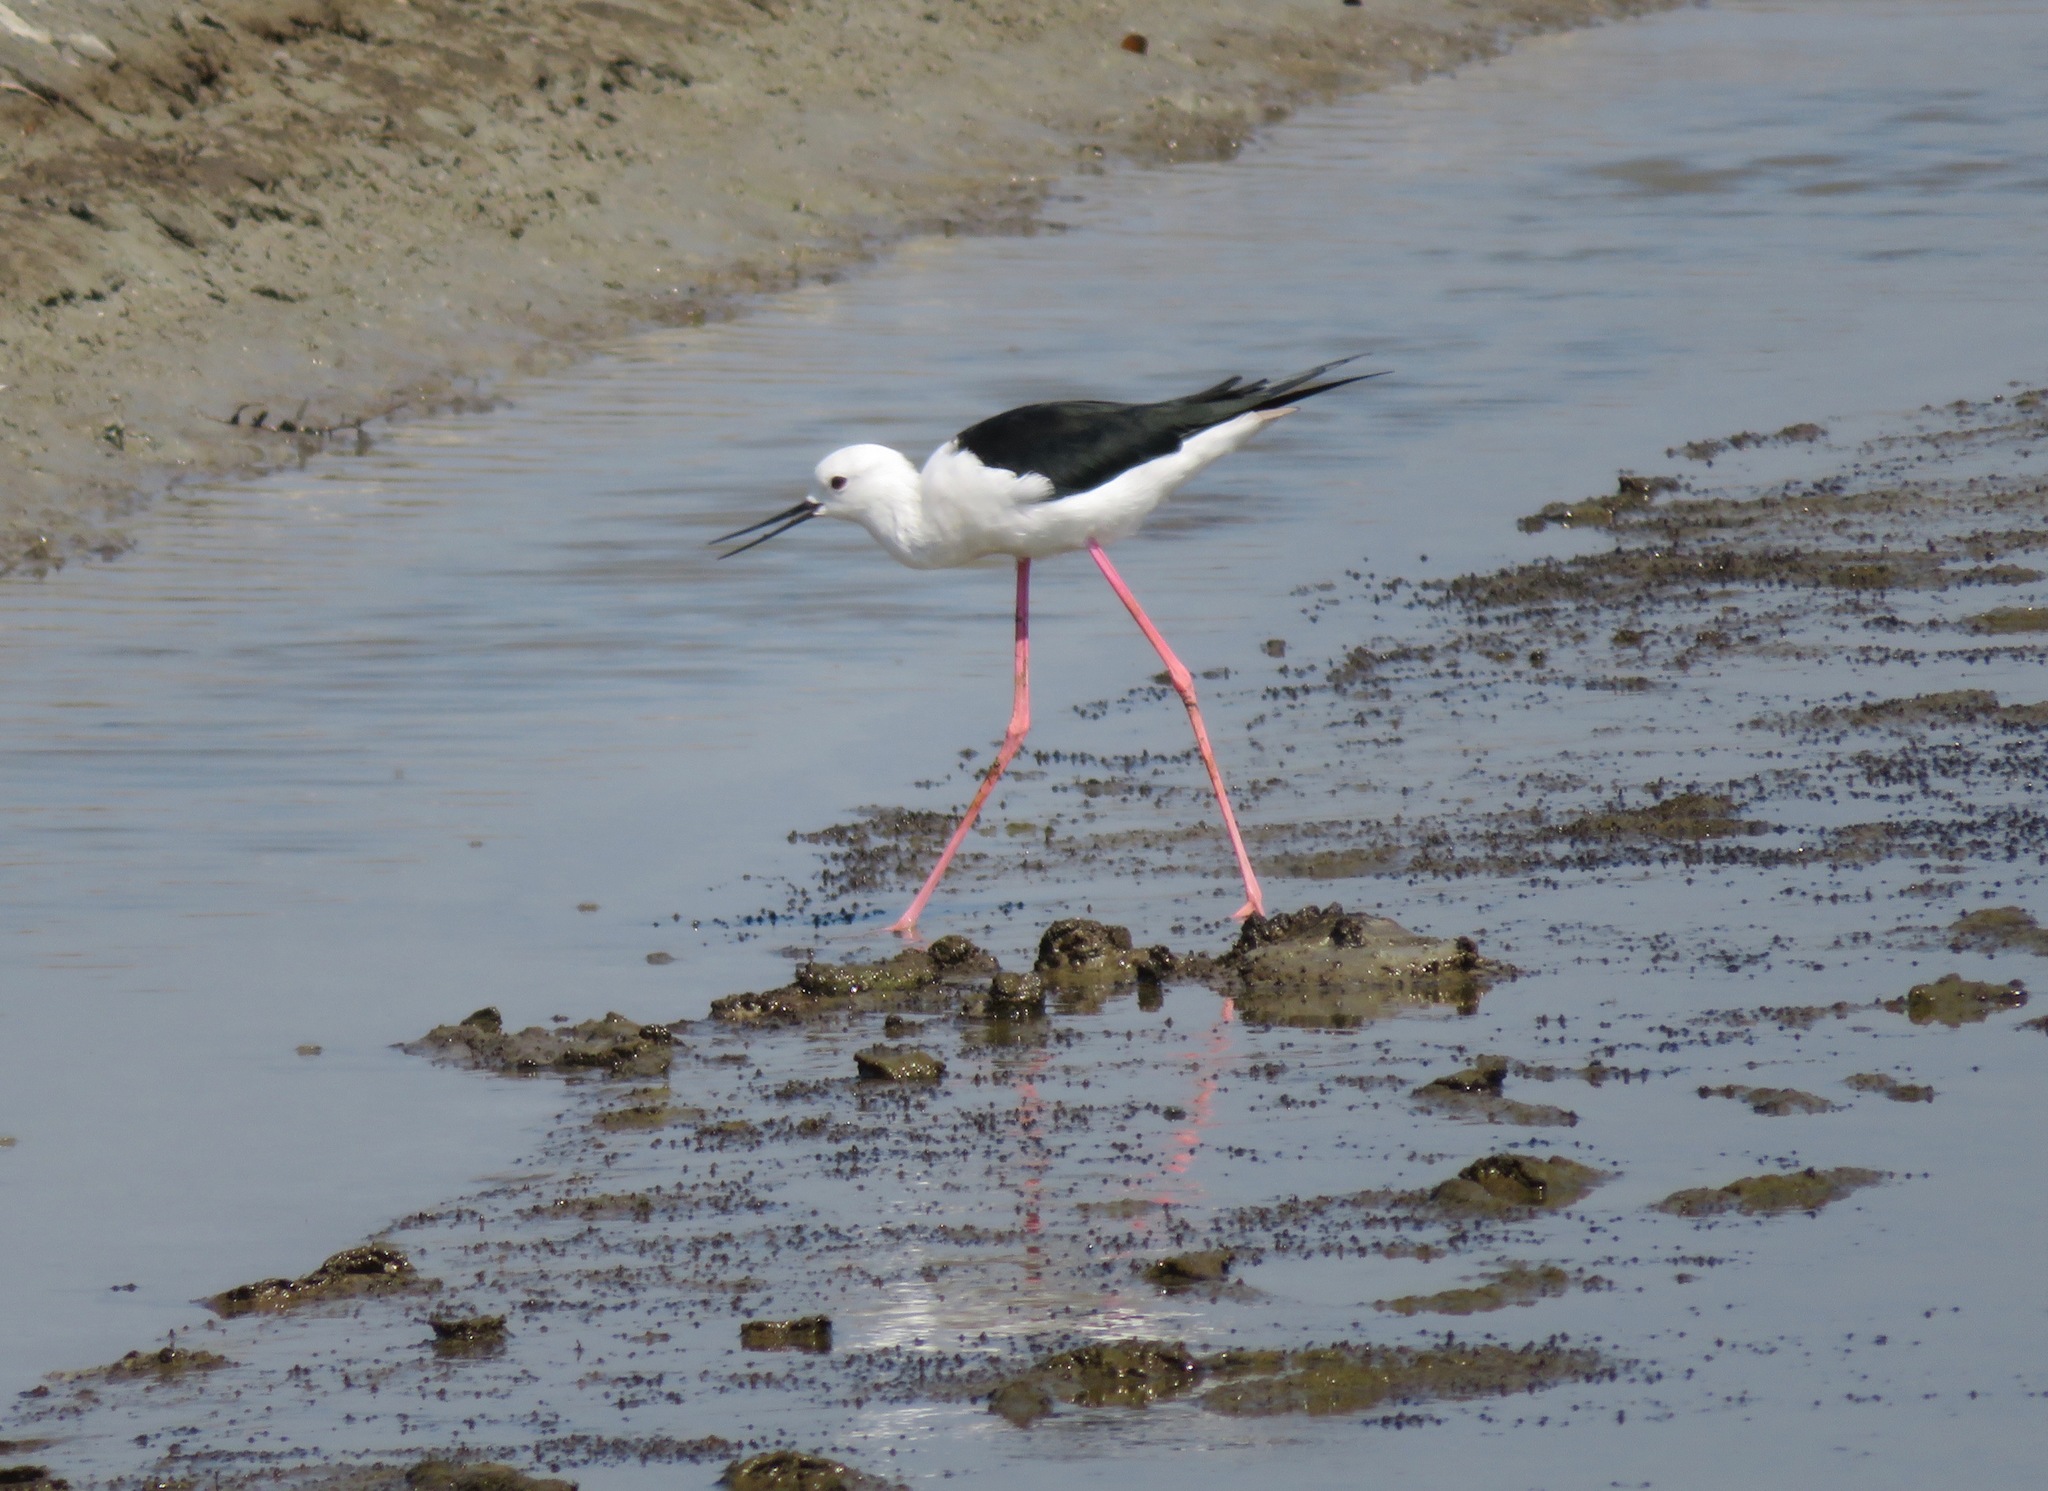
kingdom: Animalia
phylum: Chordata
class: Aves
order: Charadriiformes
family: Recurvirostridae
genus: Himantopus
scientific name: Himantopus himantopus
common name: Black-winged stilt
